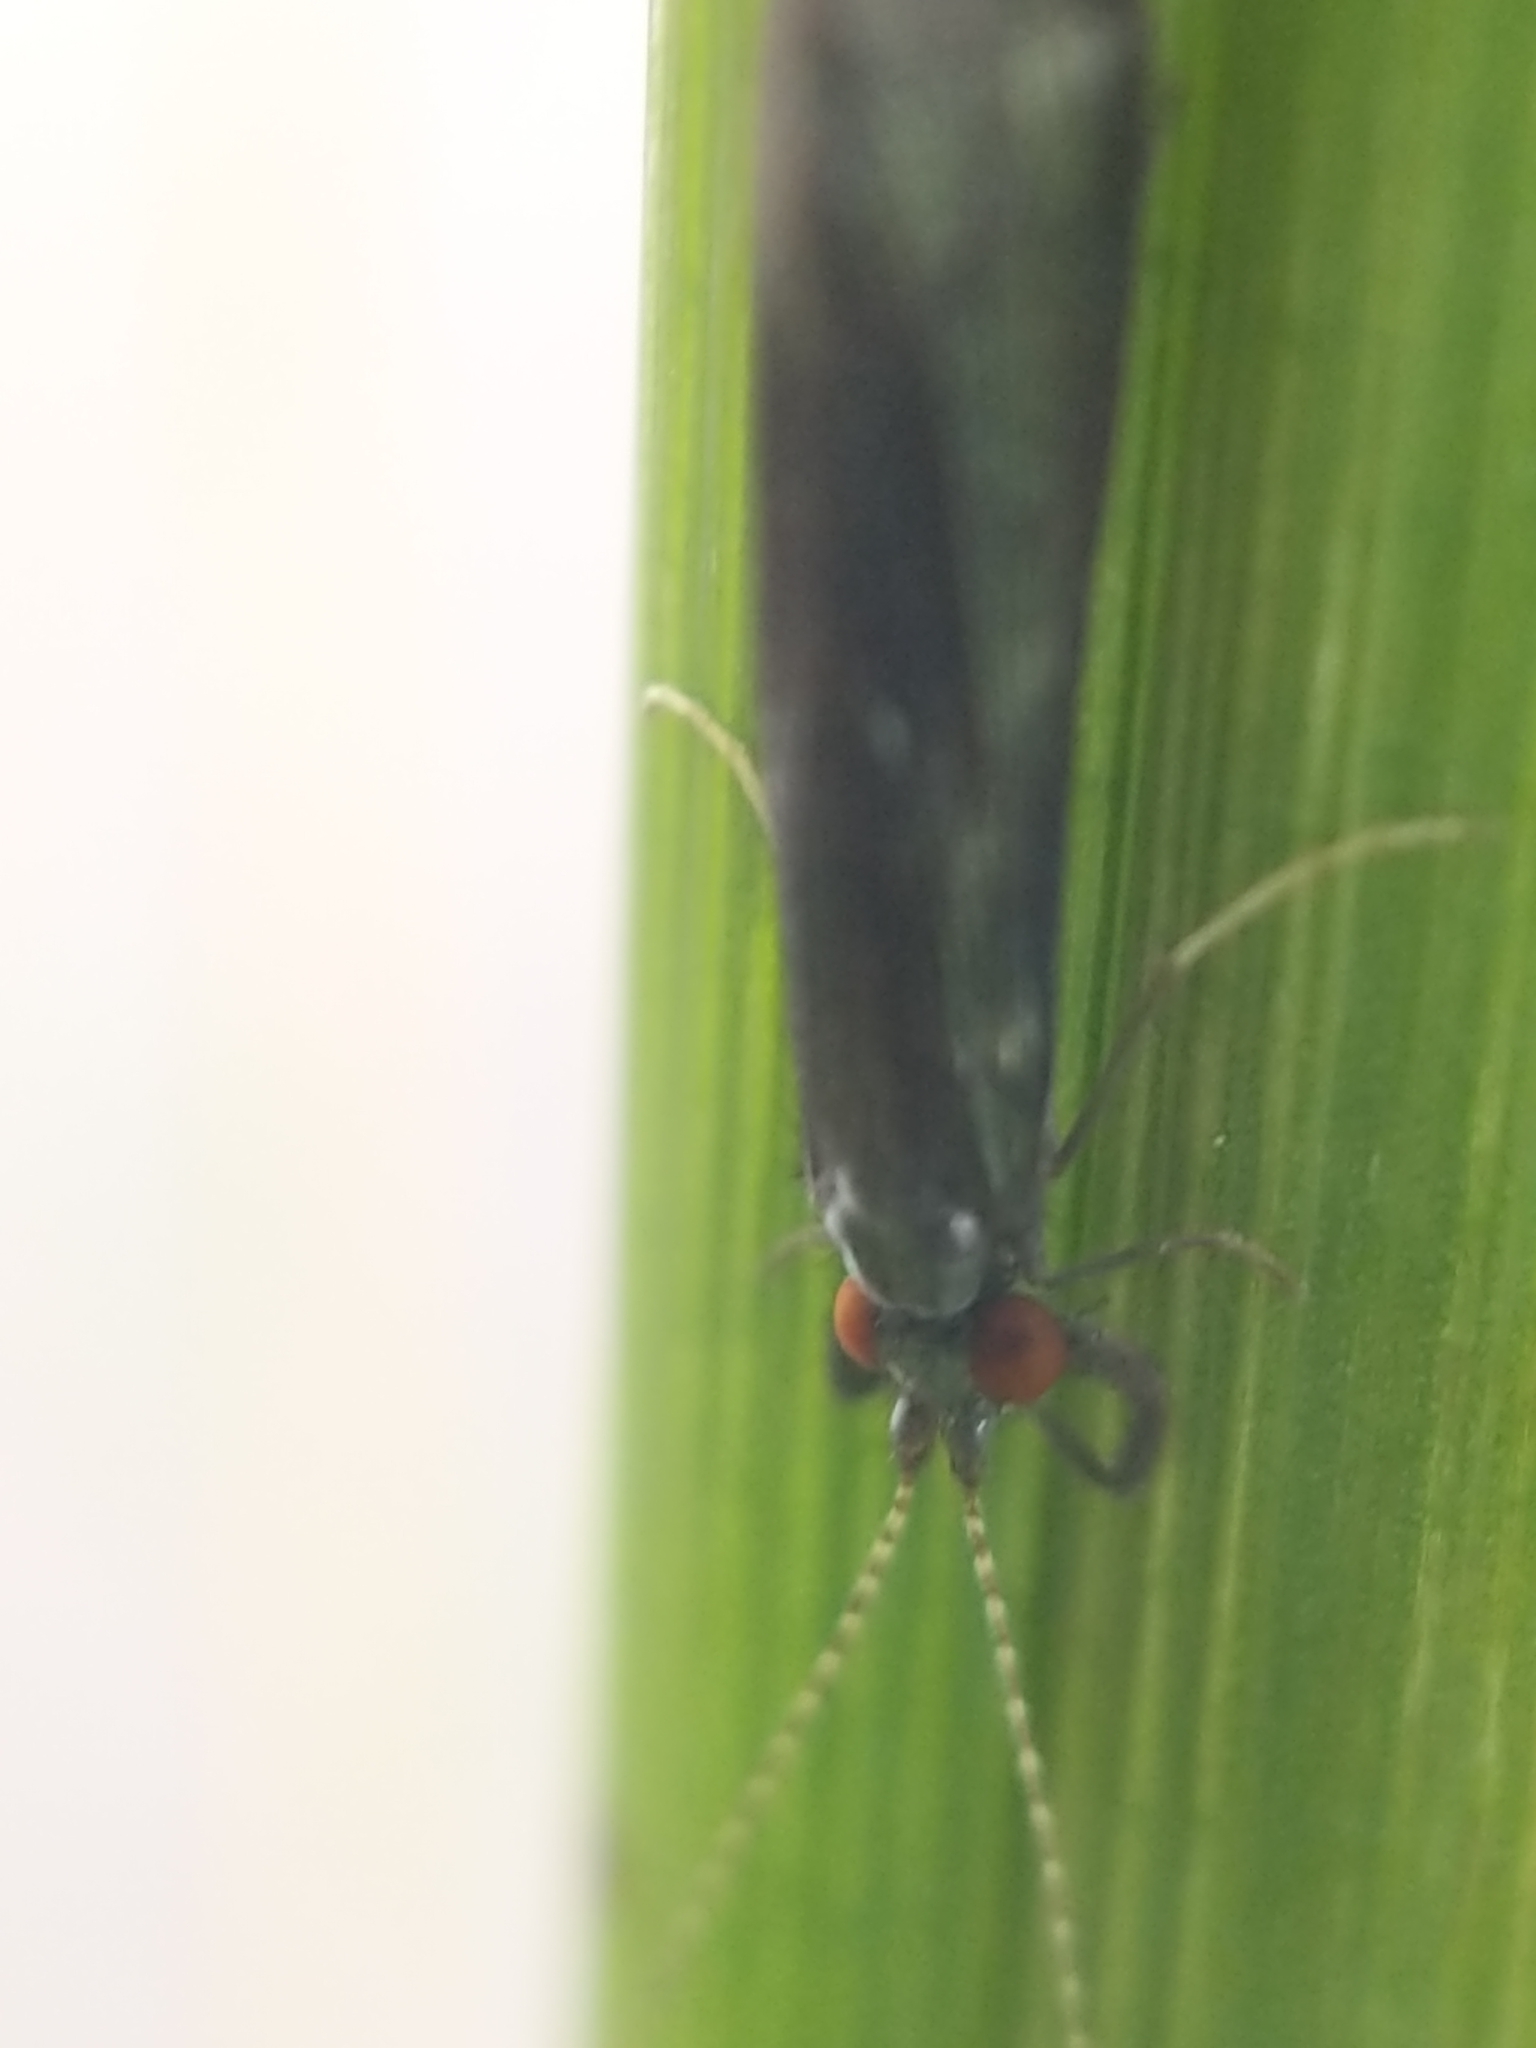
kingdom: Animalia
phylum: Arthropoda
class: Insecta
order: Trichoptera
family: Leptoceridae
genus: Mystacides
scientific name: Mystacides sepulchralis
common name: Black dancer caddisfly
